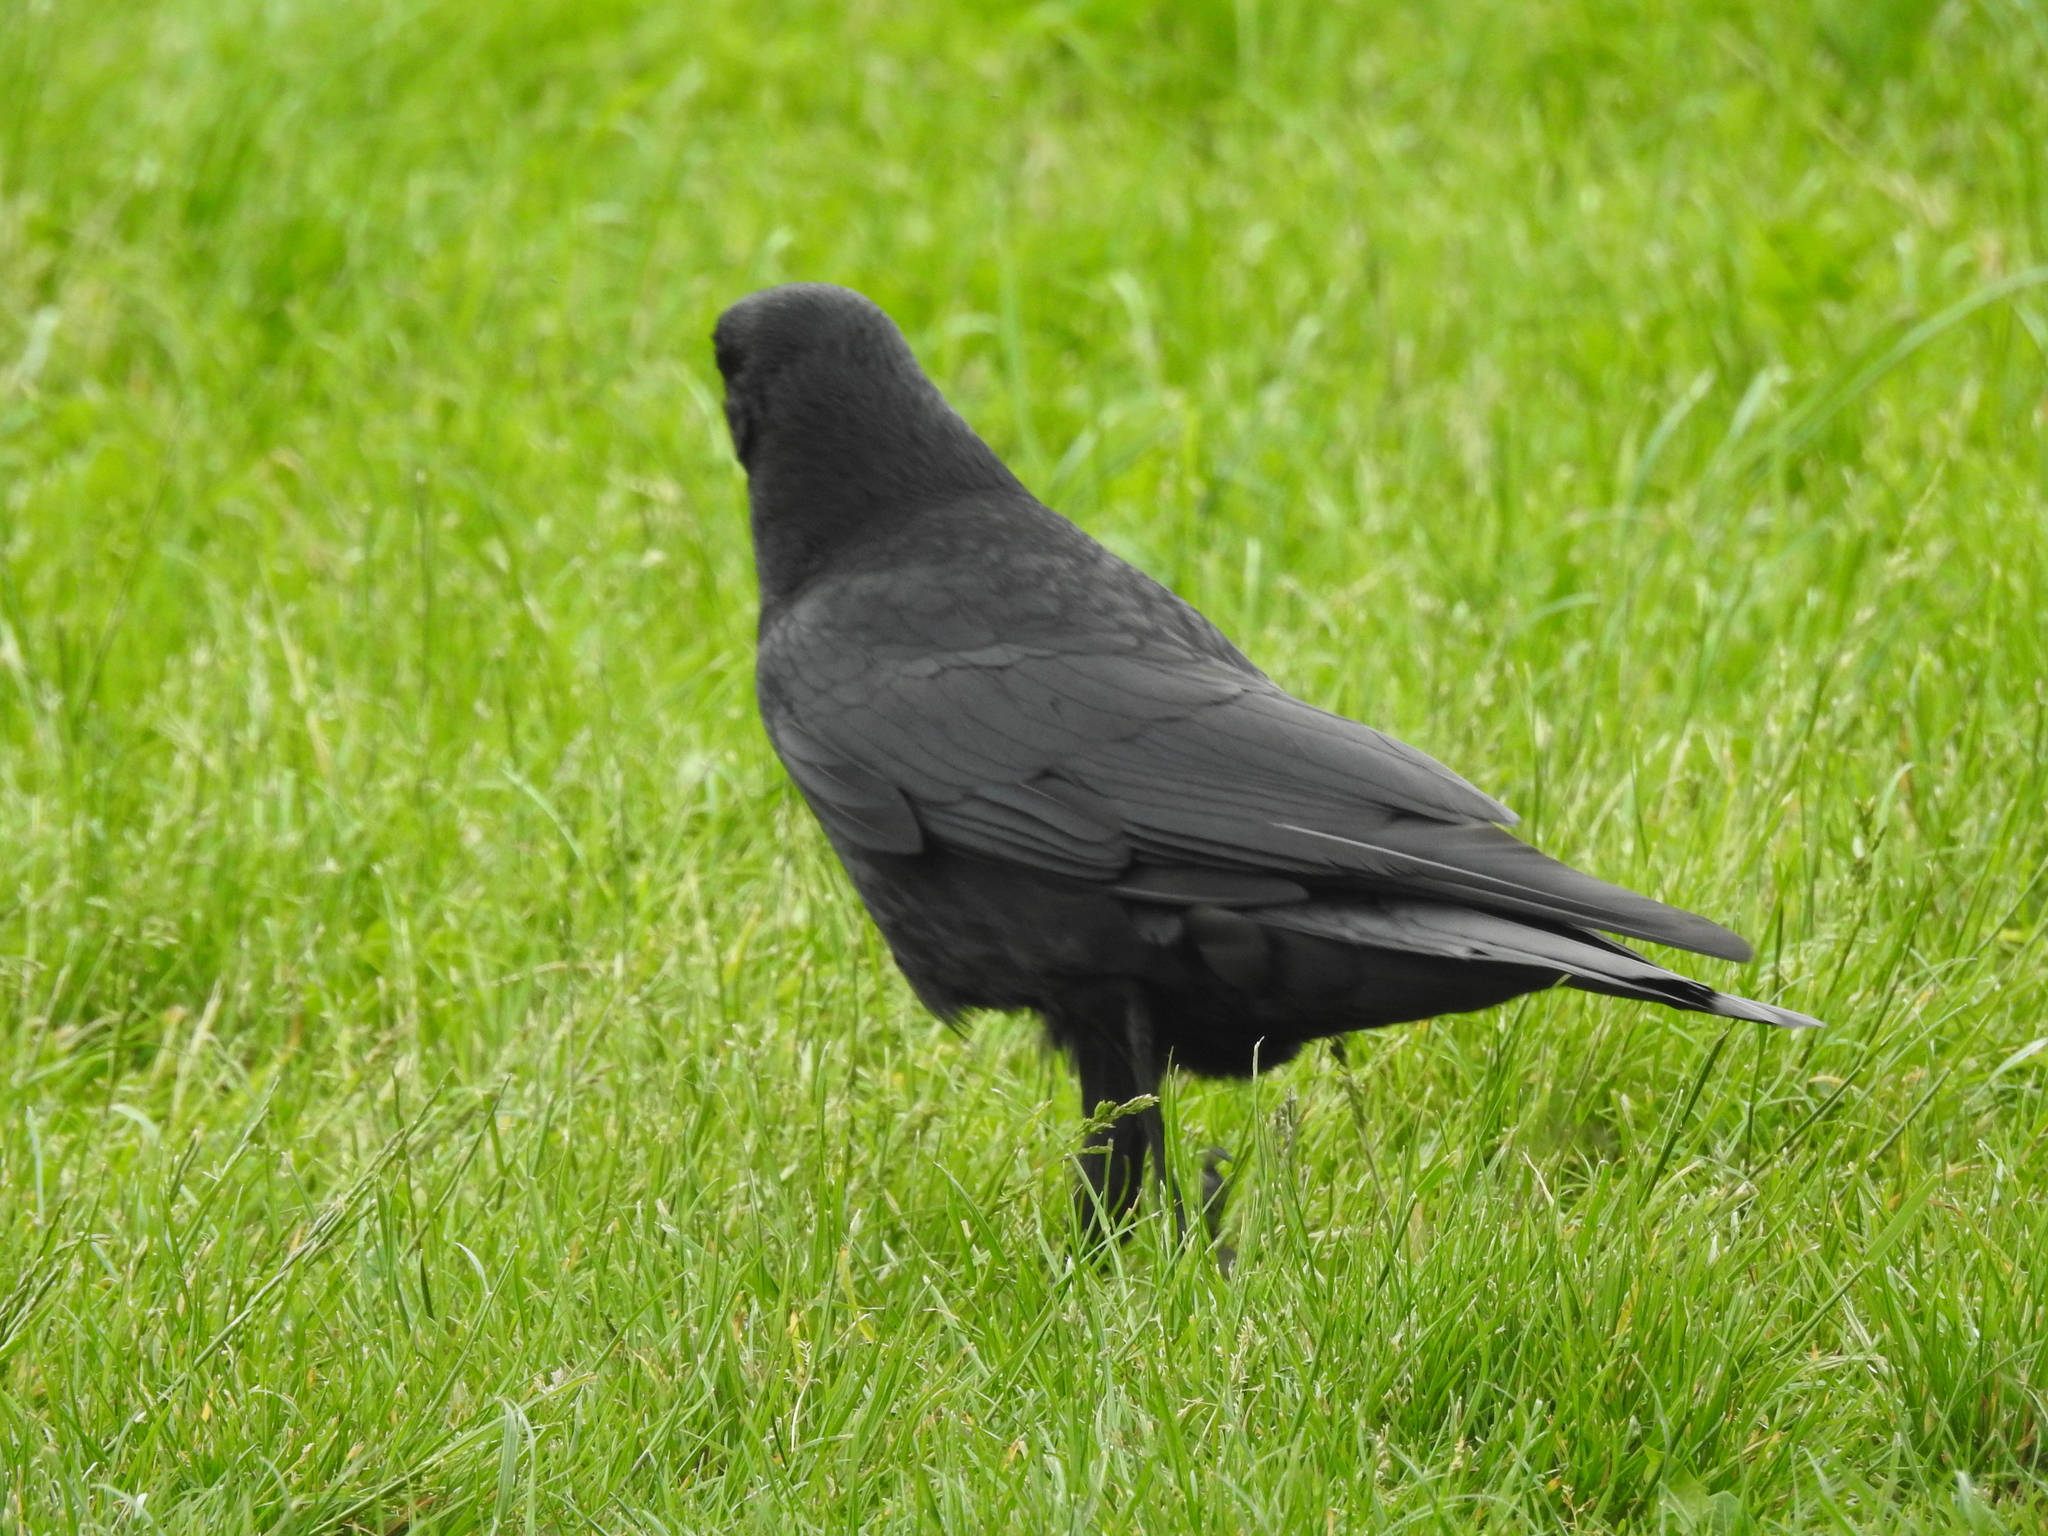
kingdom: Animalia
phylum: Chordata
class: Aves
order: Passeriformes
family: Corvidae
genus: Corvus
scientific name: Corvus corone
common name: Carrion crow
